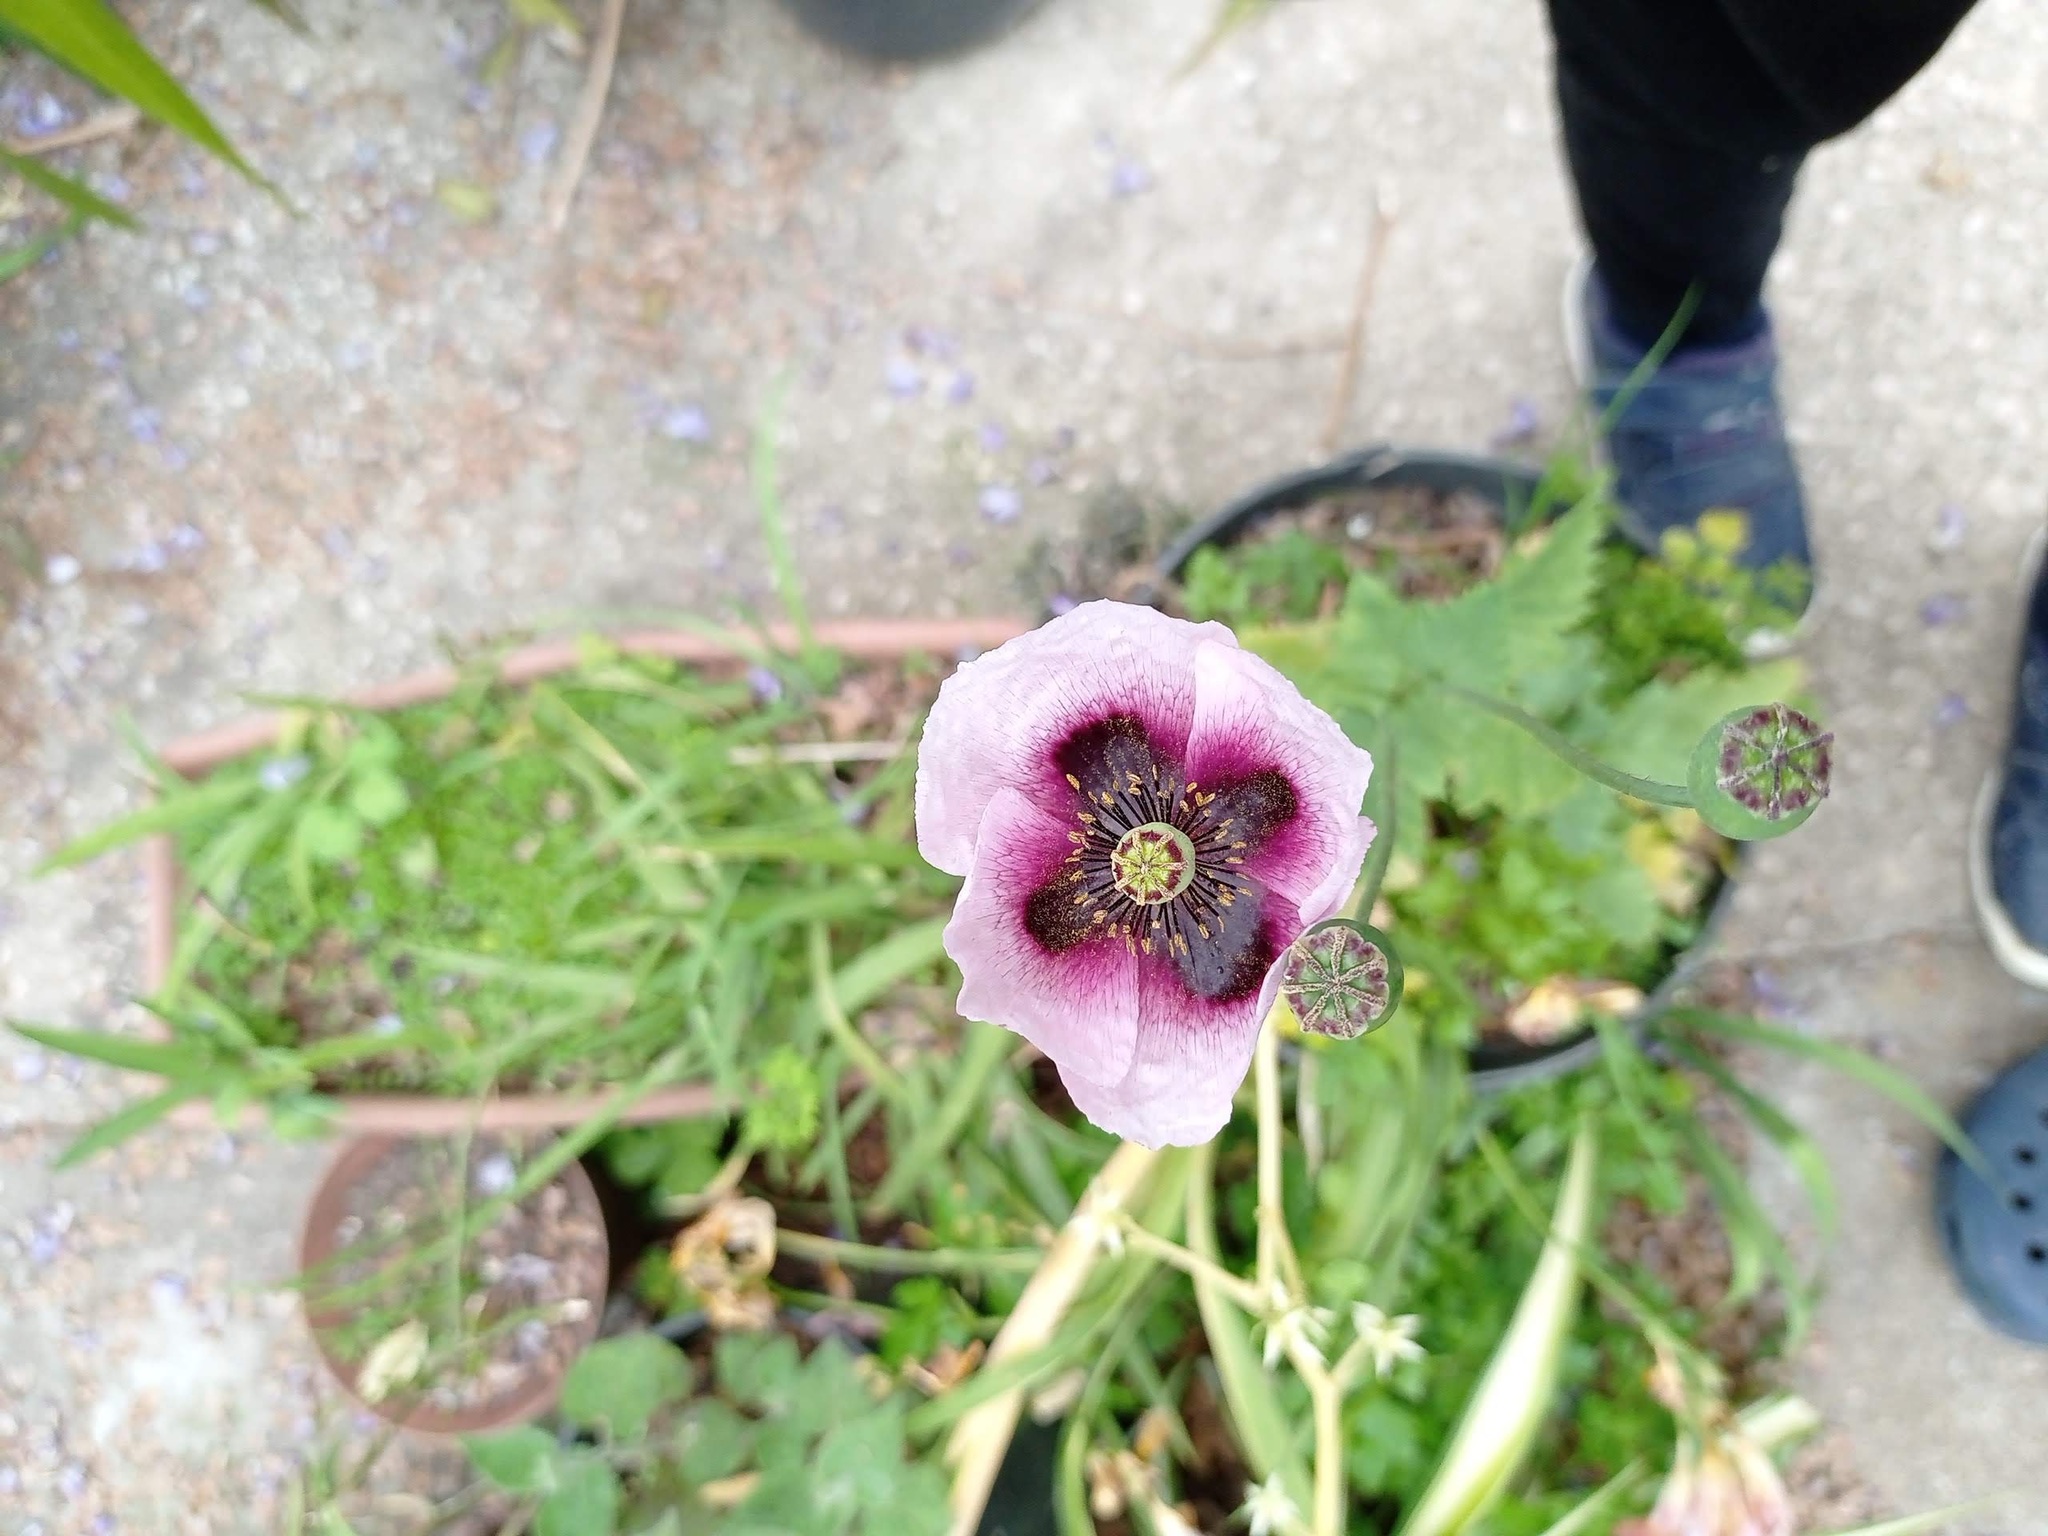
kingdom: Plantae
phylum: Tracheophyta
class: Magnoliopsida
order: Ranunculales
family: Papaveraceae
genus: Papaver
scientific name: Papaver setigerum
